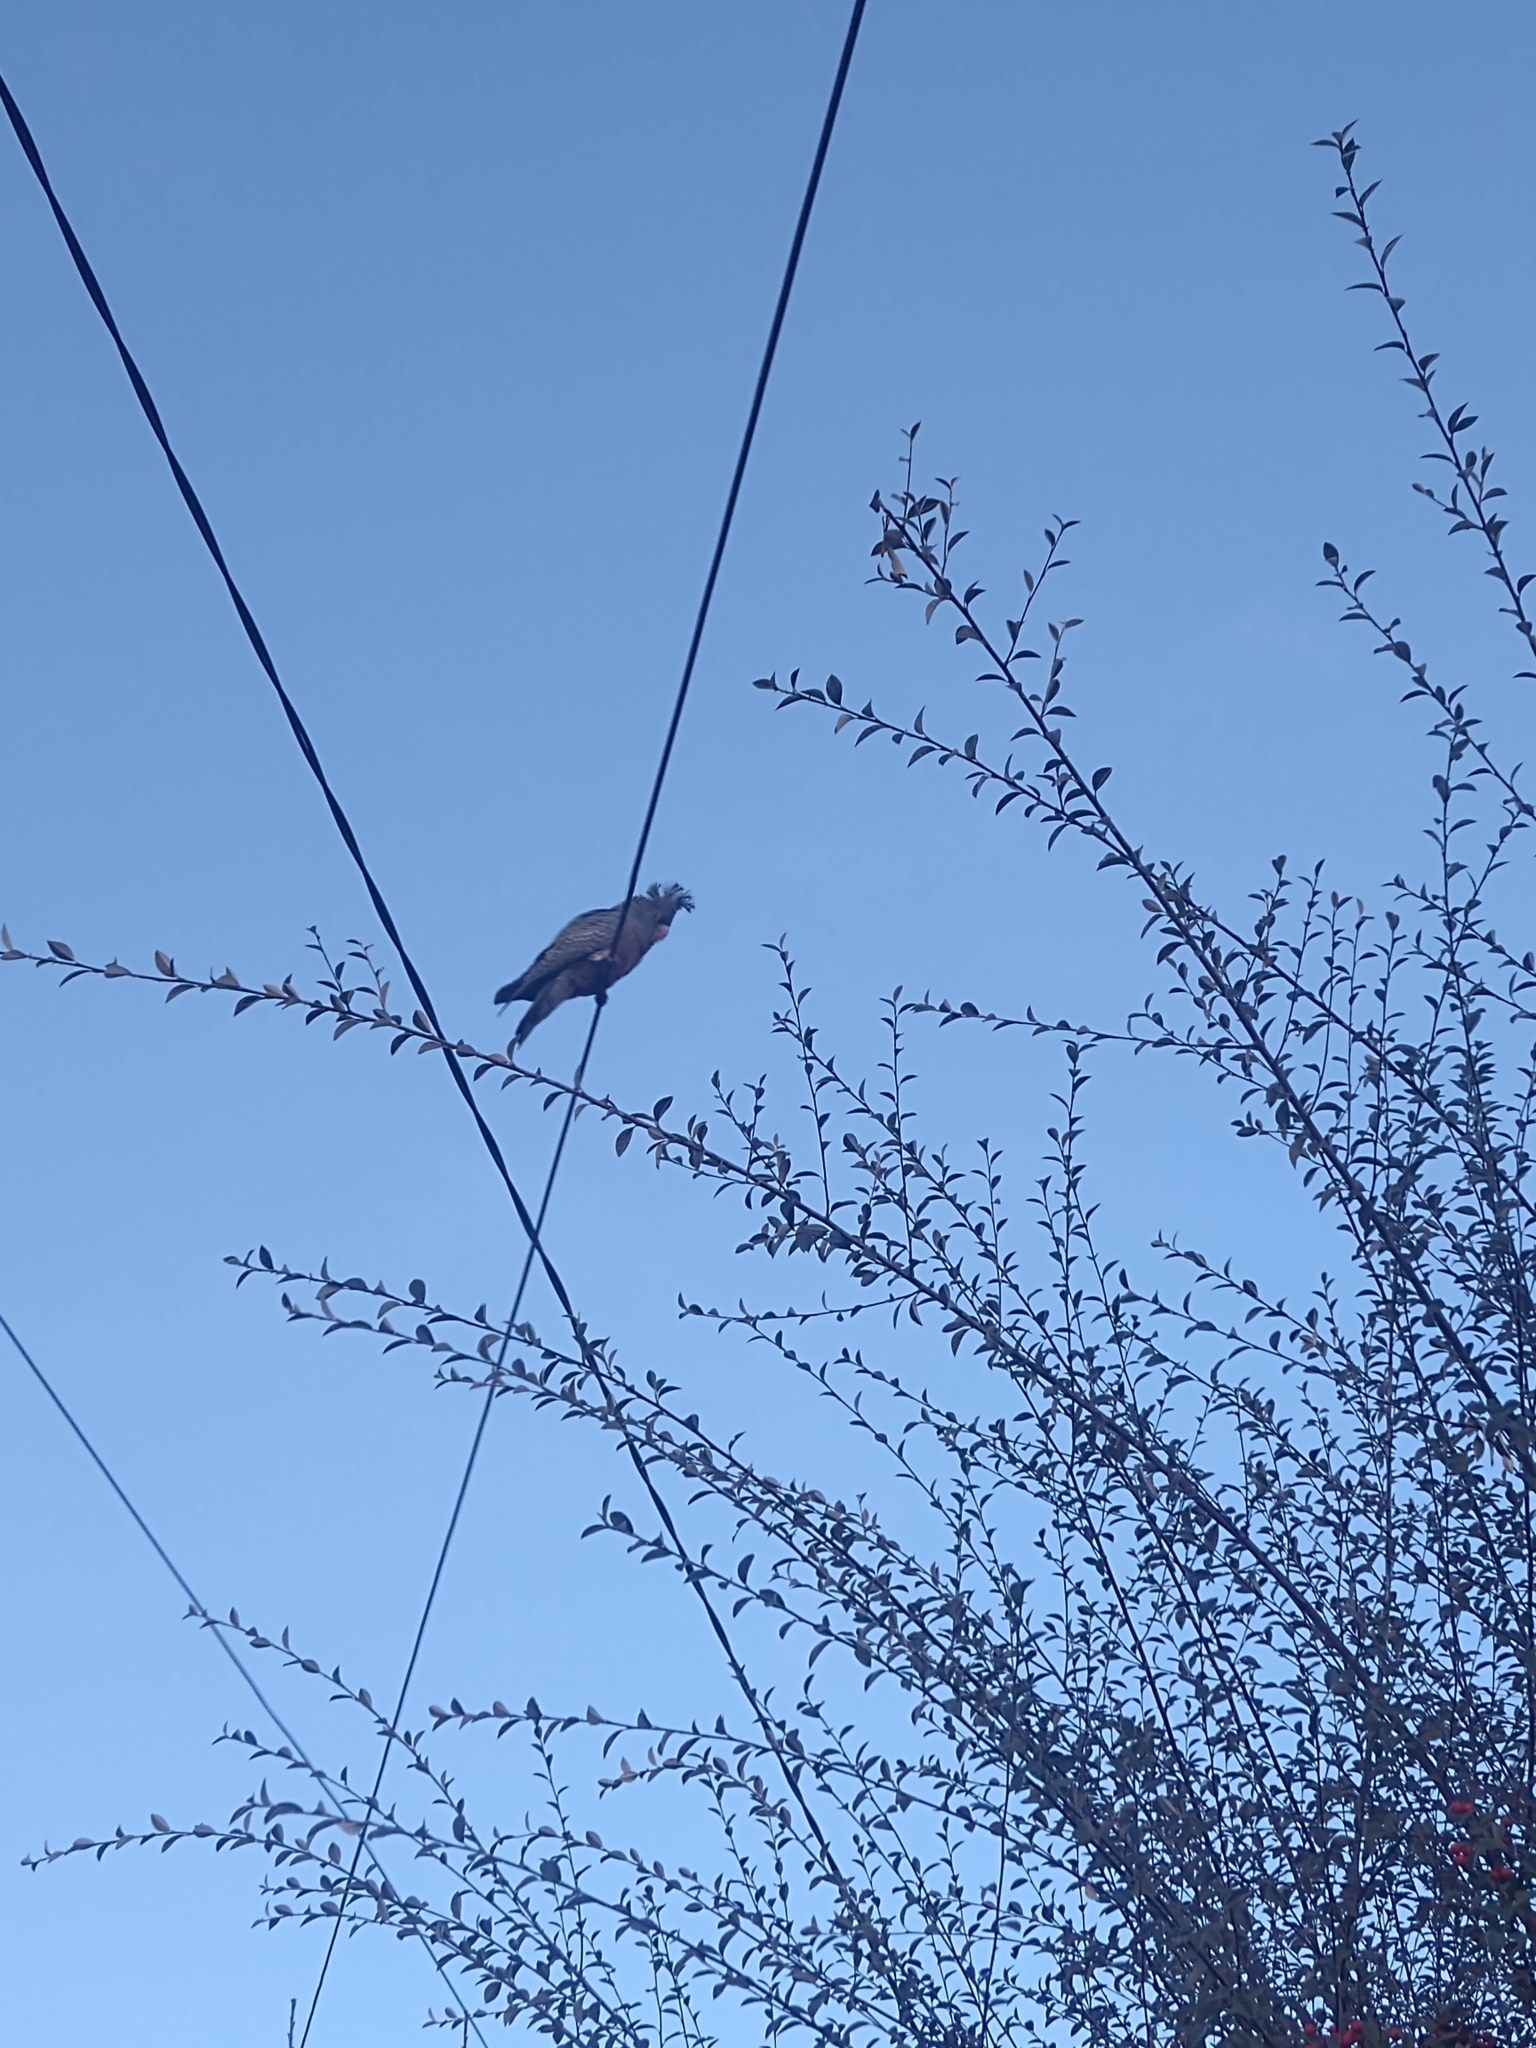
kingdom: Animalia
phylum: Chordata
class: Aves
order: Psittaciformes
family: Psittacidae
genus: Callocephalon
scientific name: Callocephalon fimbriatum
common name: Gang-gang cockatoo
